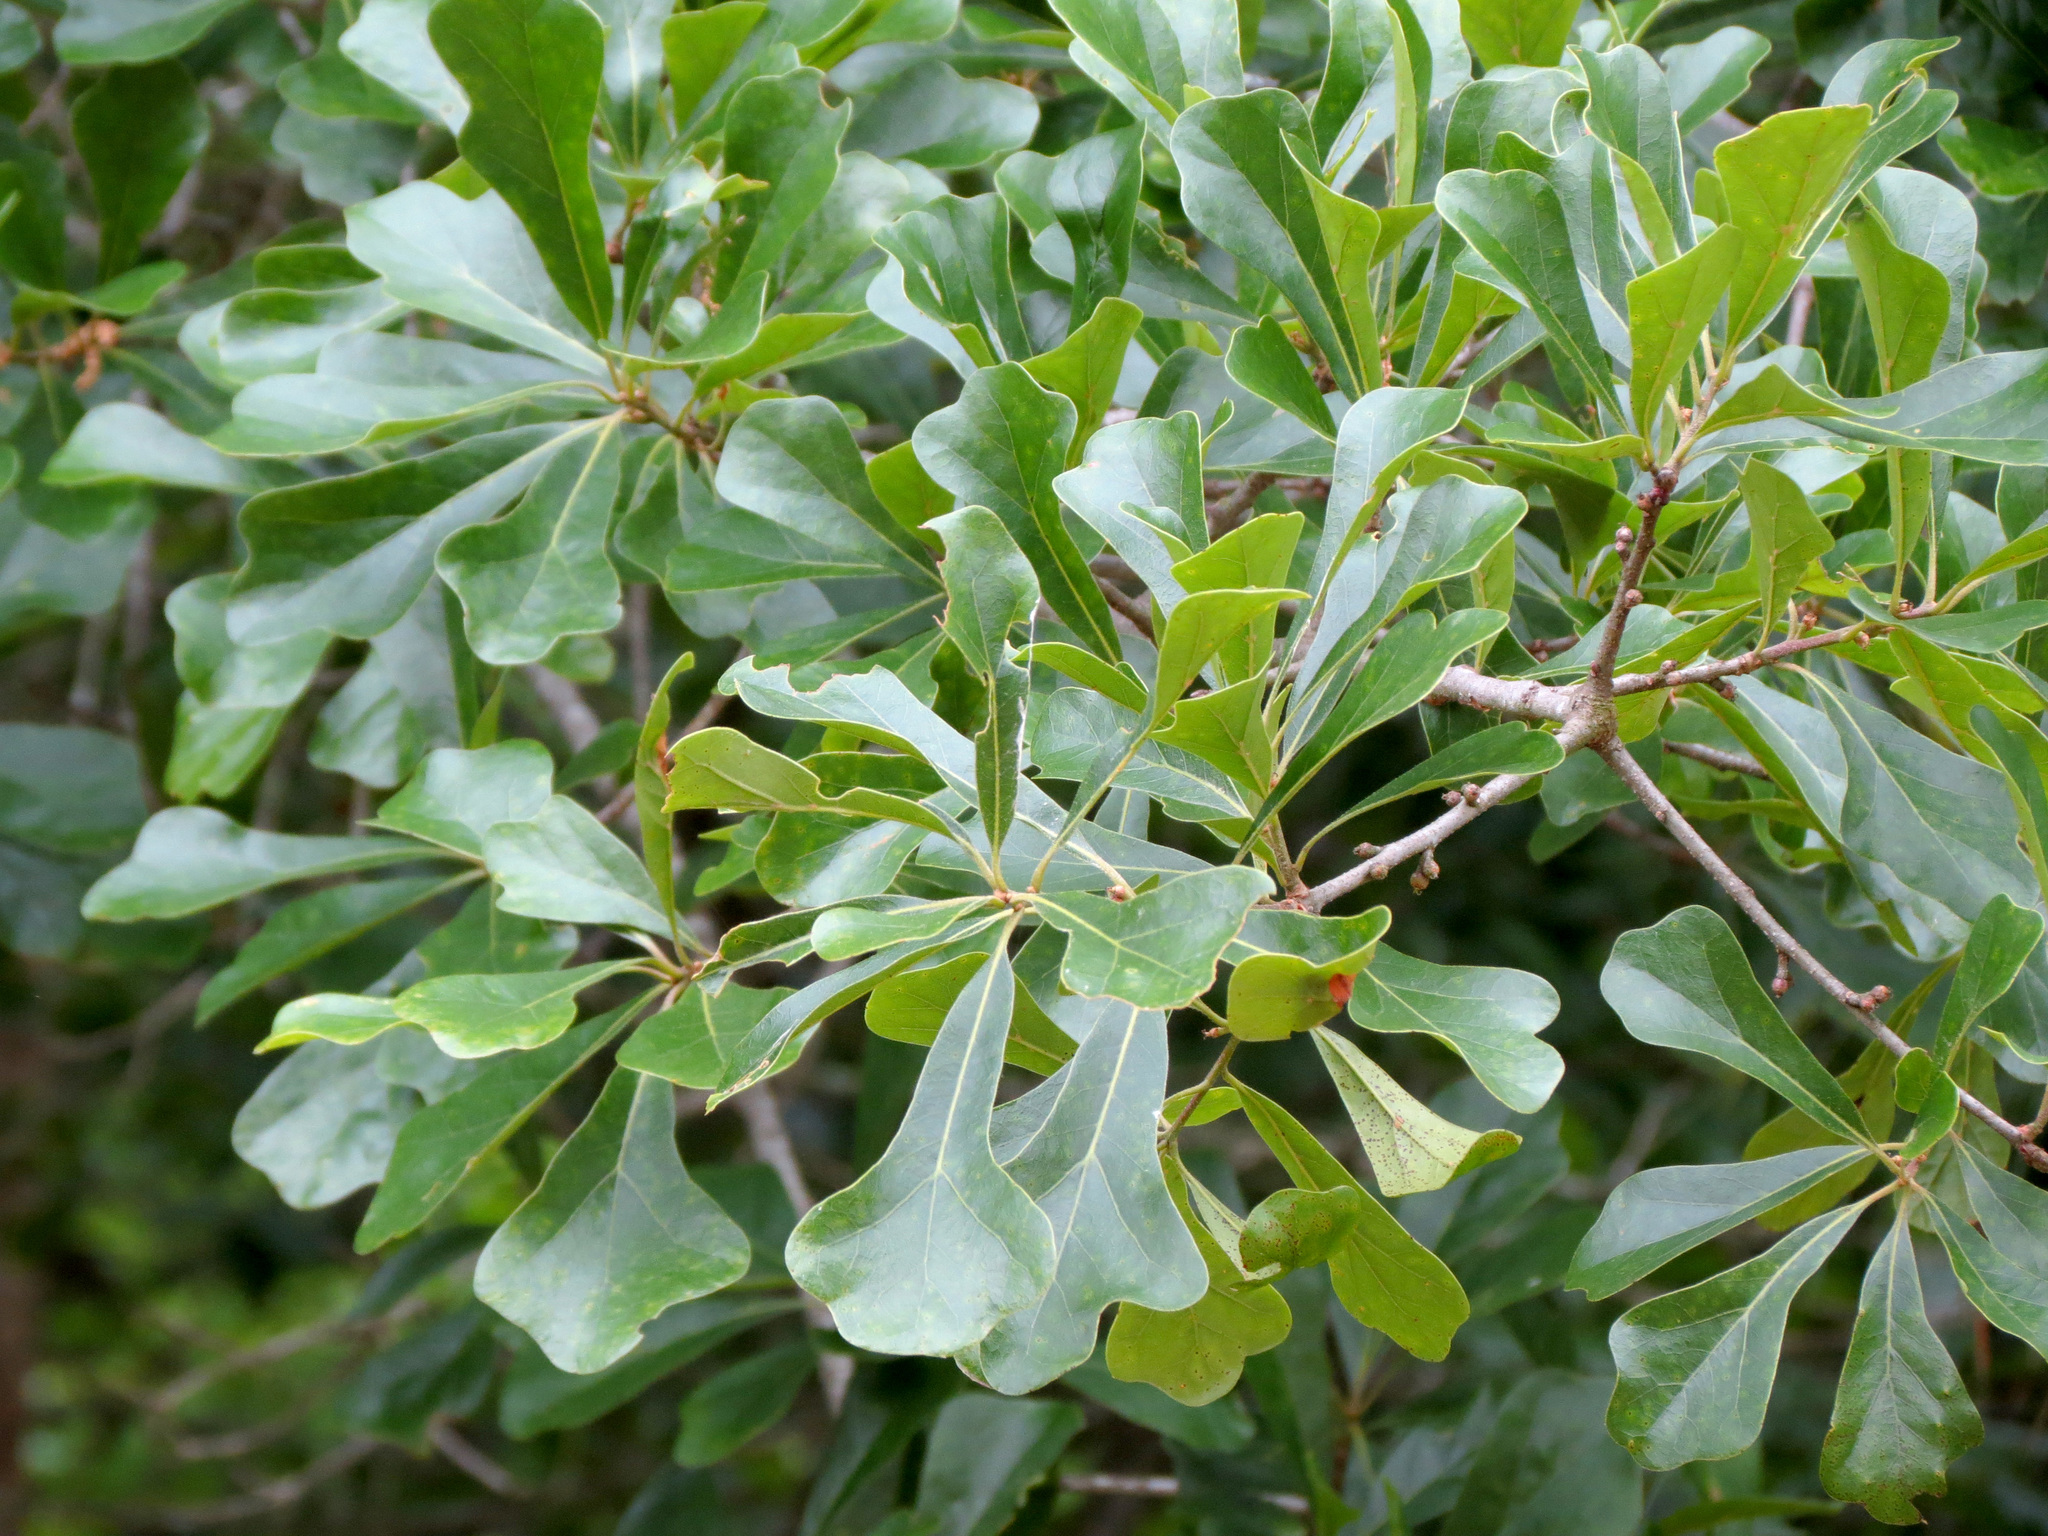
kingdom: Plantae
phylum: Tracheophyta
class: Magnoliopsida
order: Fagales
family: Fagaceae
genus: Quercus
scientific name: Quercus nigra
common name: Water oak
